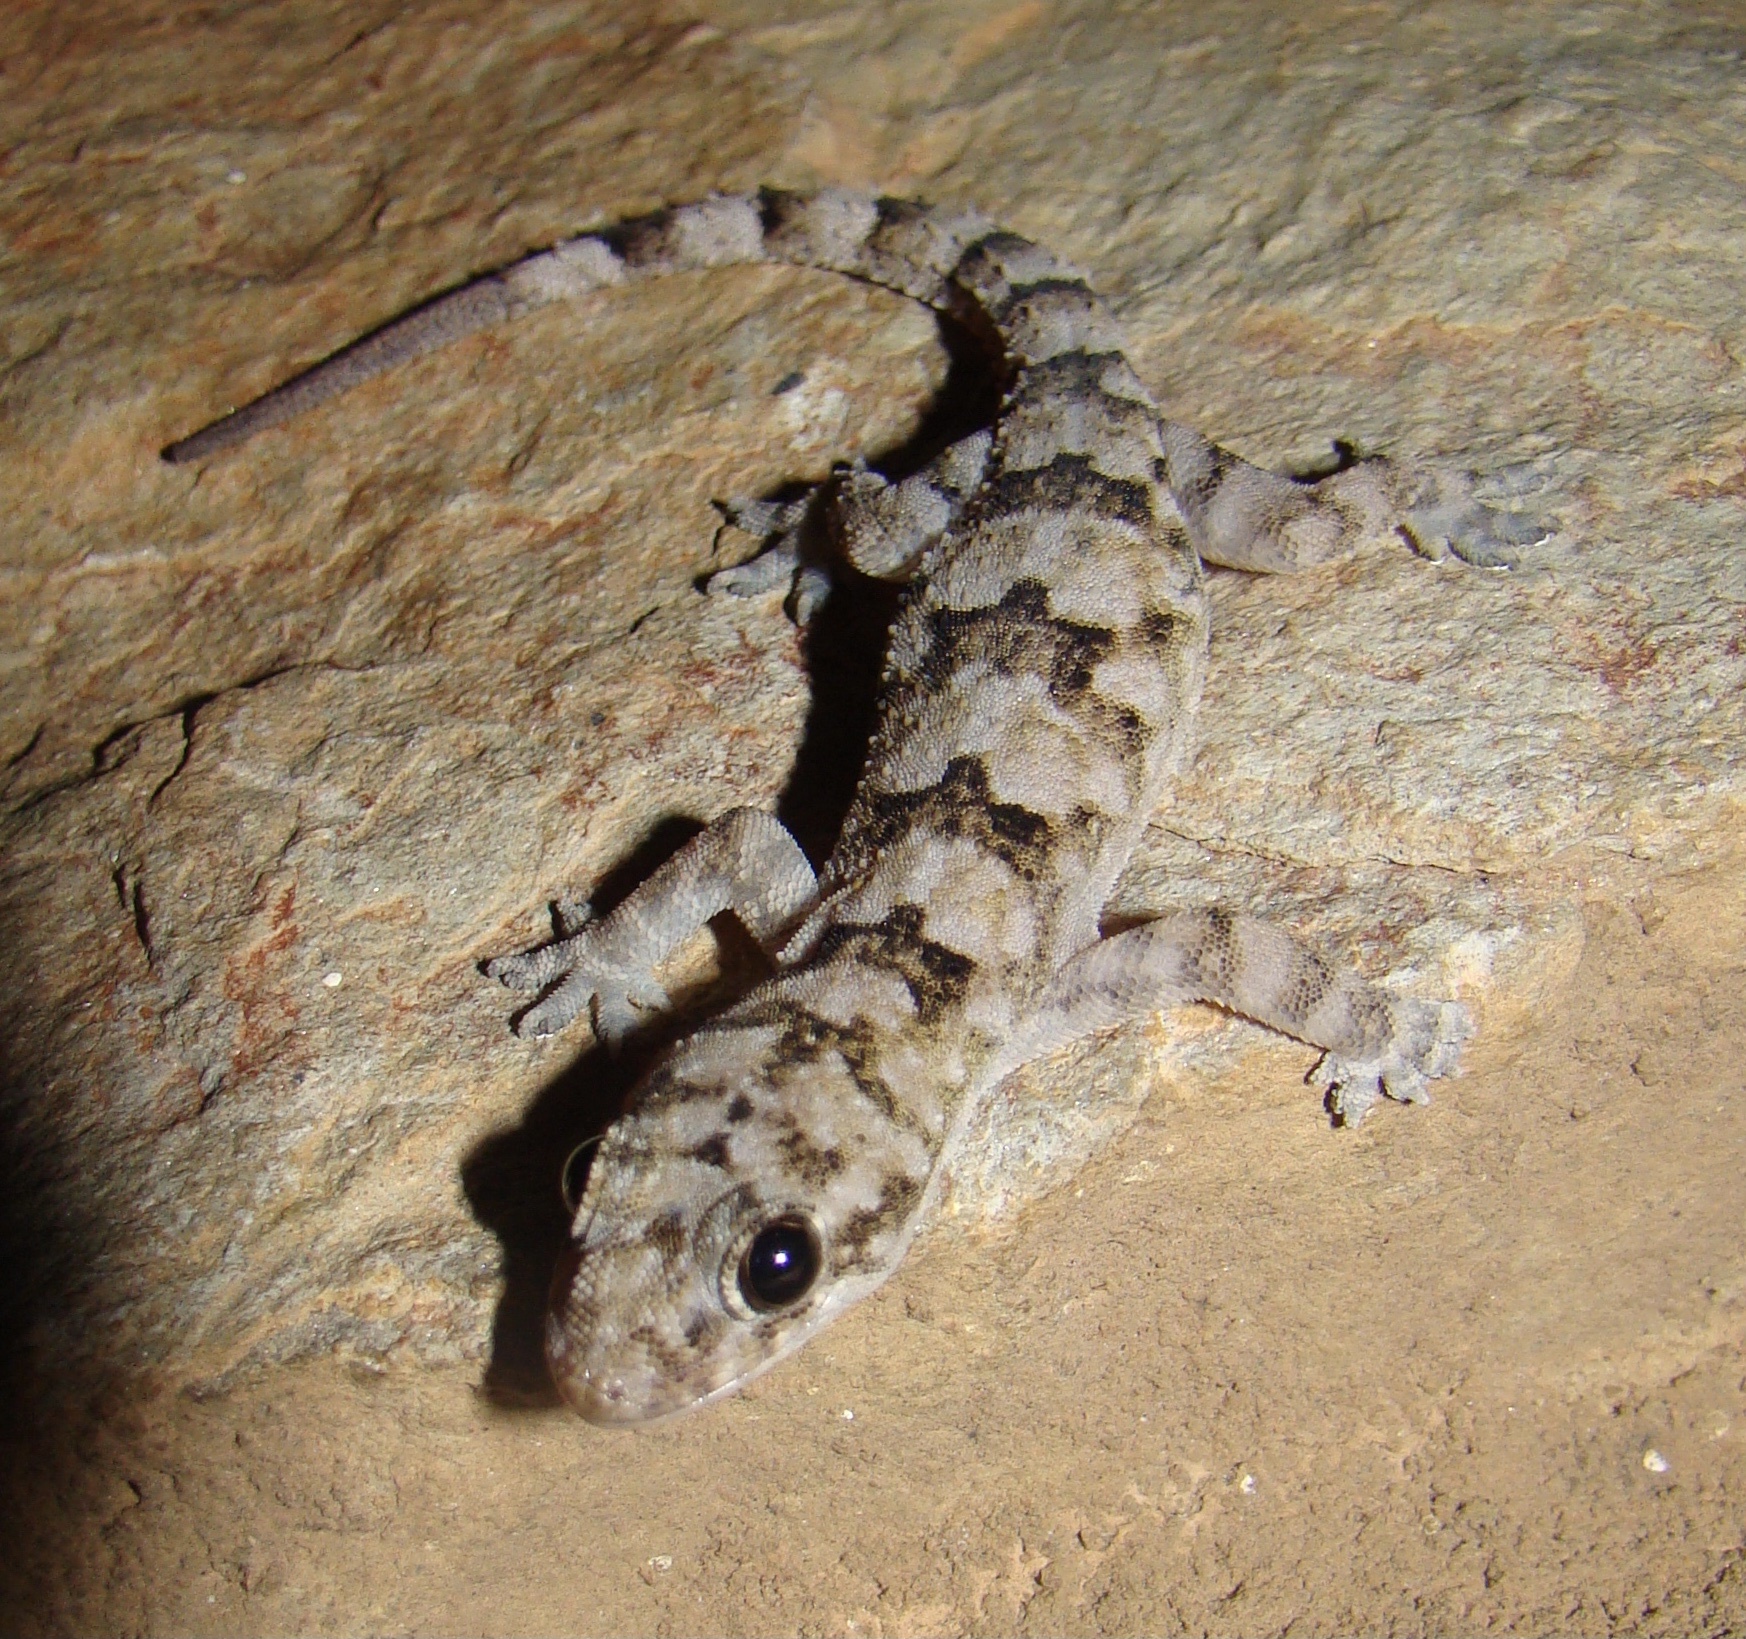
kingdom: Animalia
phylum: Chordata
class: Squamata
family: Gekkonidae
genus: Hemidactylus
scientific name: Hemidactylus mabouia
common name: House gecko
